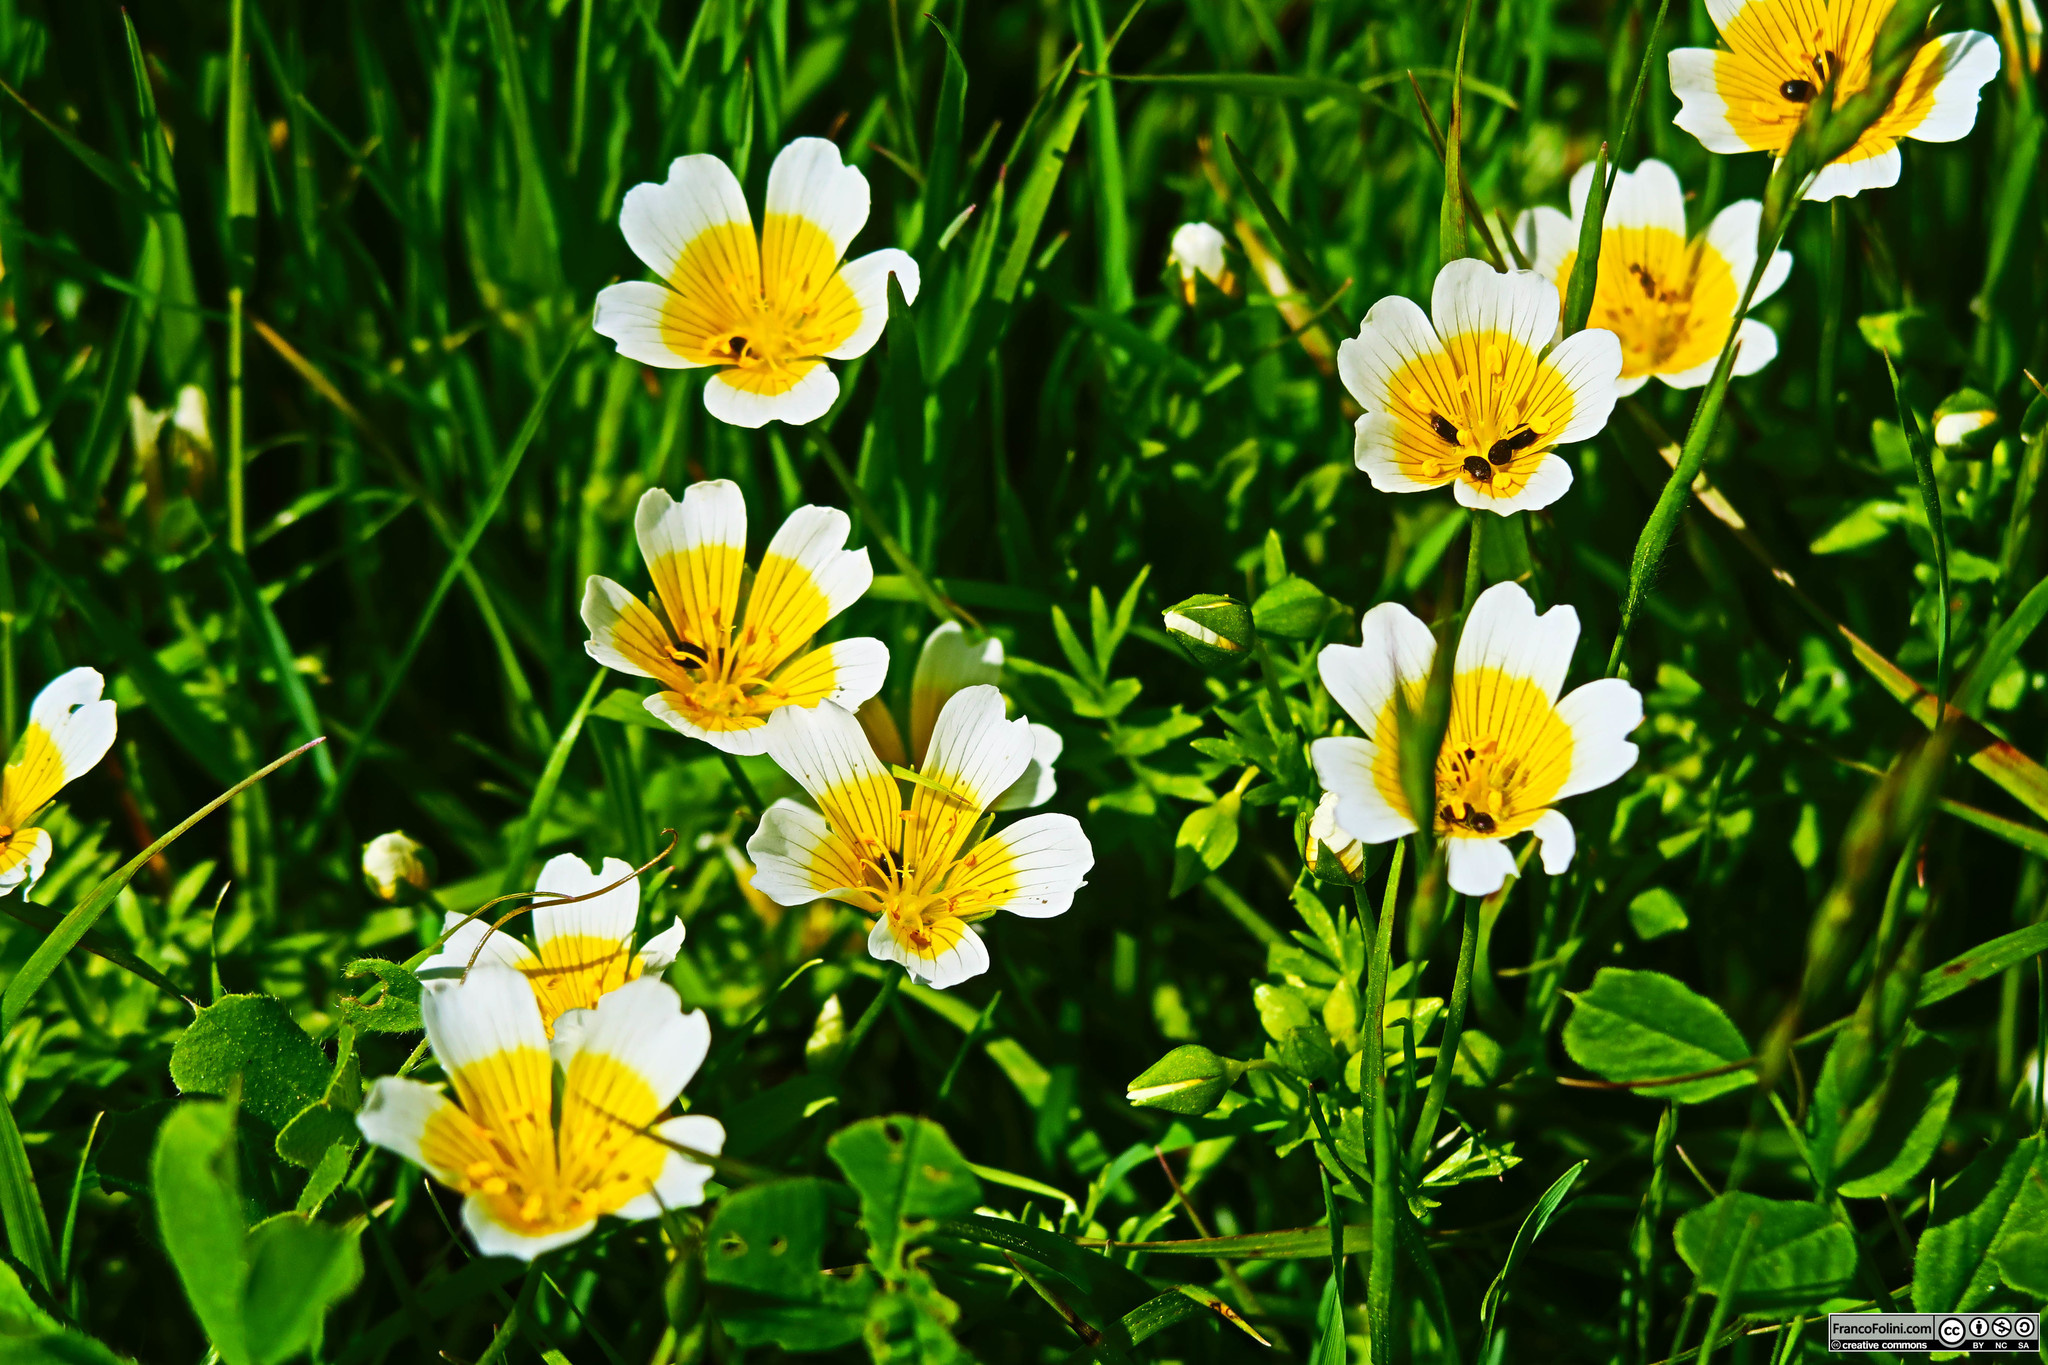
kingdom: Plantae
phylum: Tracheophyta
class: Magnoliopsida
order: Brassicales
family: Limnanthaceae
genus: Limnanthes
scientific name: Limnanthes douglasii
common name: Meadow-foam
